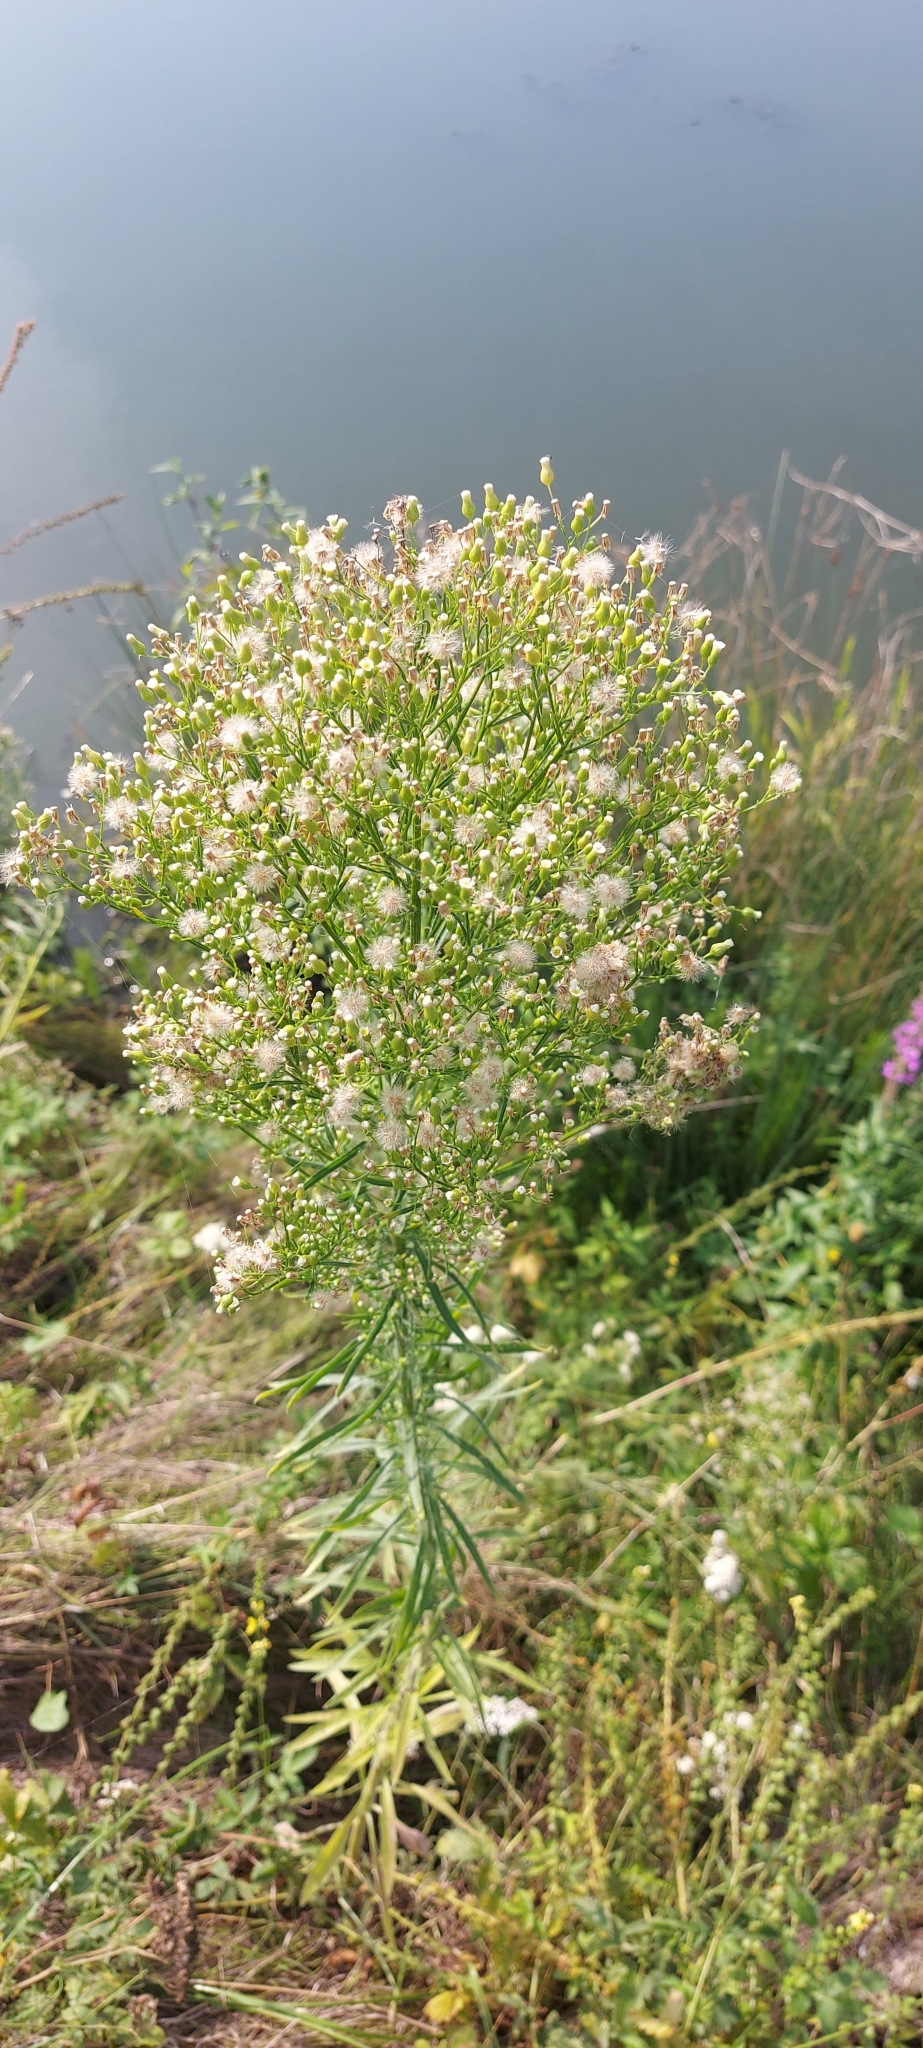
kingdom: Plantae
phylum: Tracheophyta
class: Magnoliopsida
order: Asterales
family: Asteraceae
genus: Erigeron
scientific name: Erigeron canadensis
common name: Canadian fleabane
